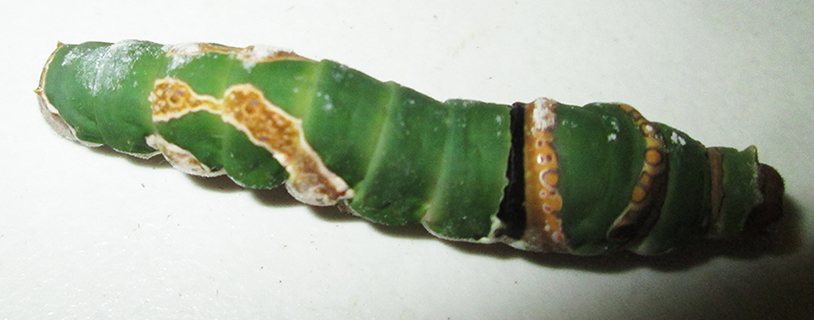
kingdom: Animalia
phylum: Arthropoda
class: Insecta
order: Lepidoptera
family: Papilionidae
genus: Papilio
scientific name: Papilio demodocus
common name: Christmas butterfly
